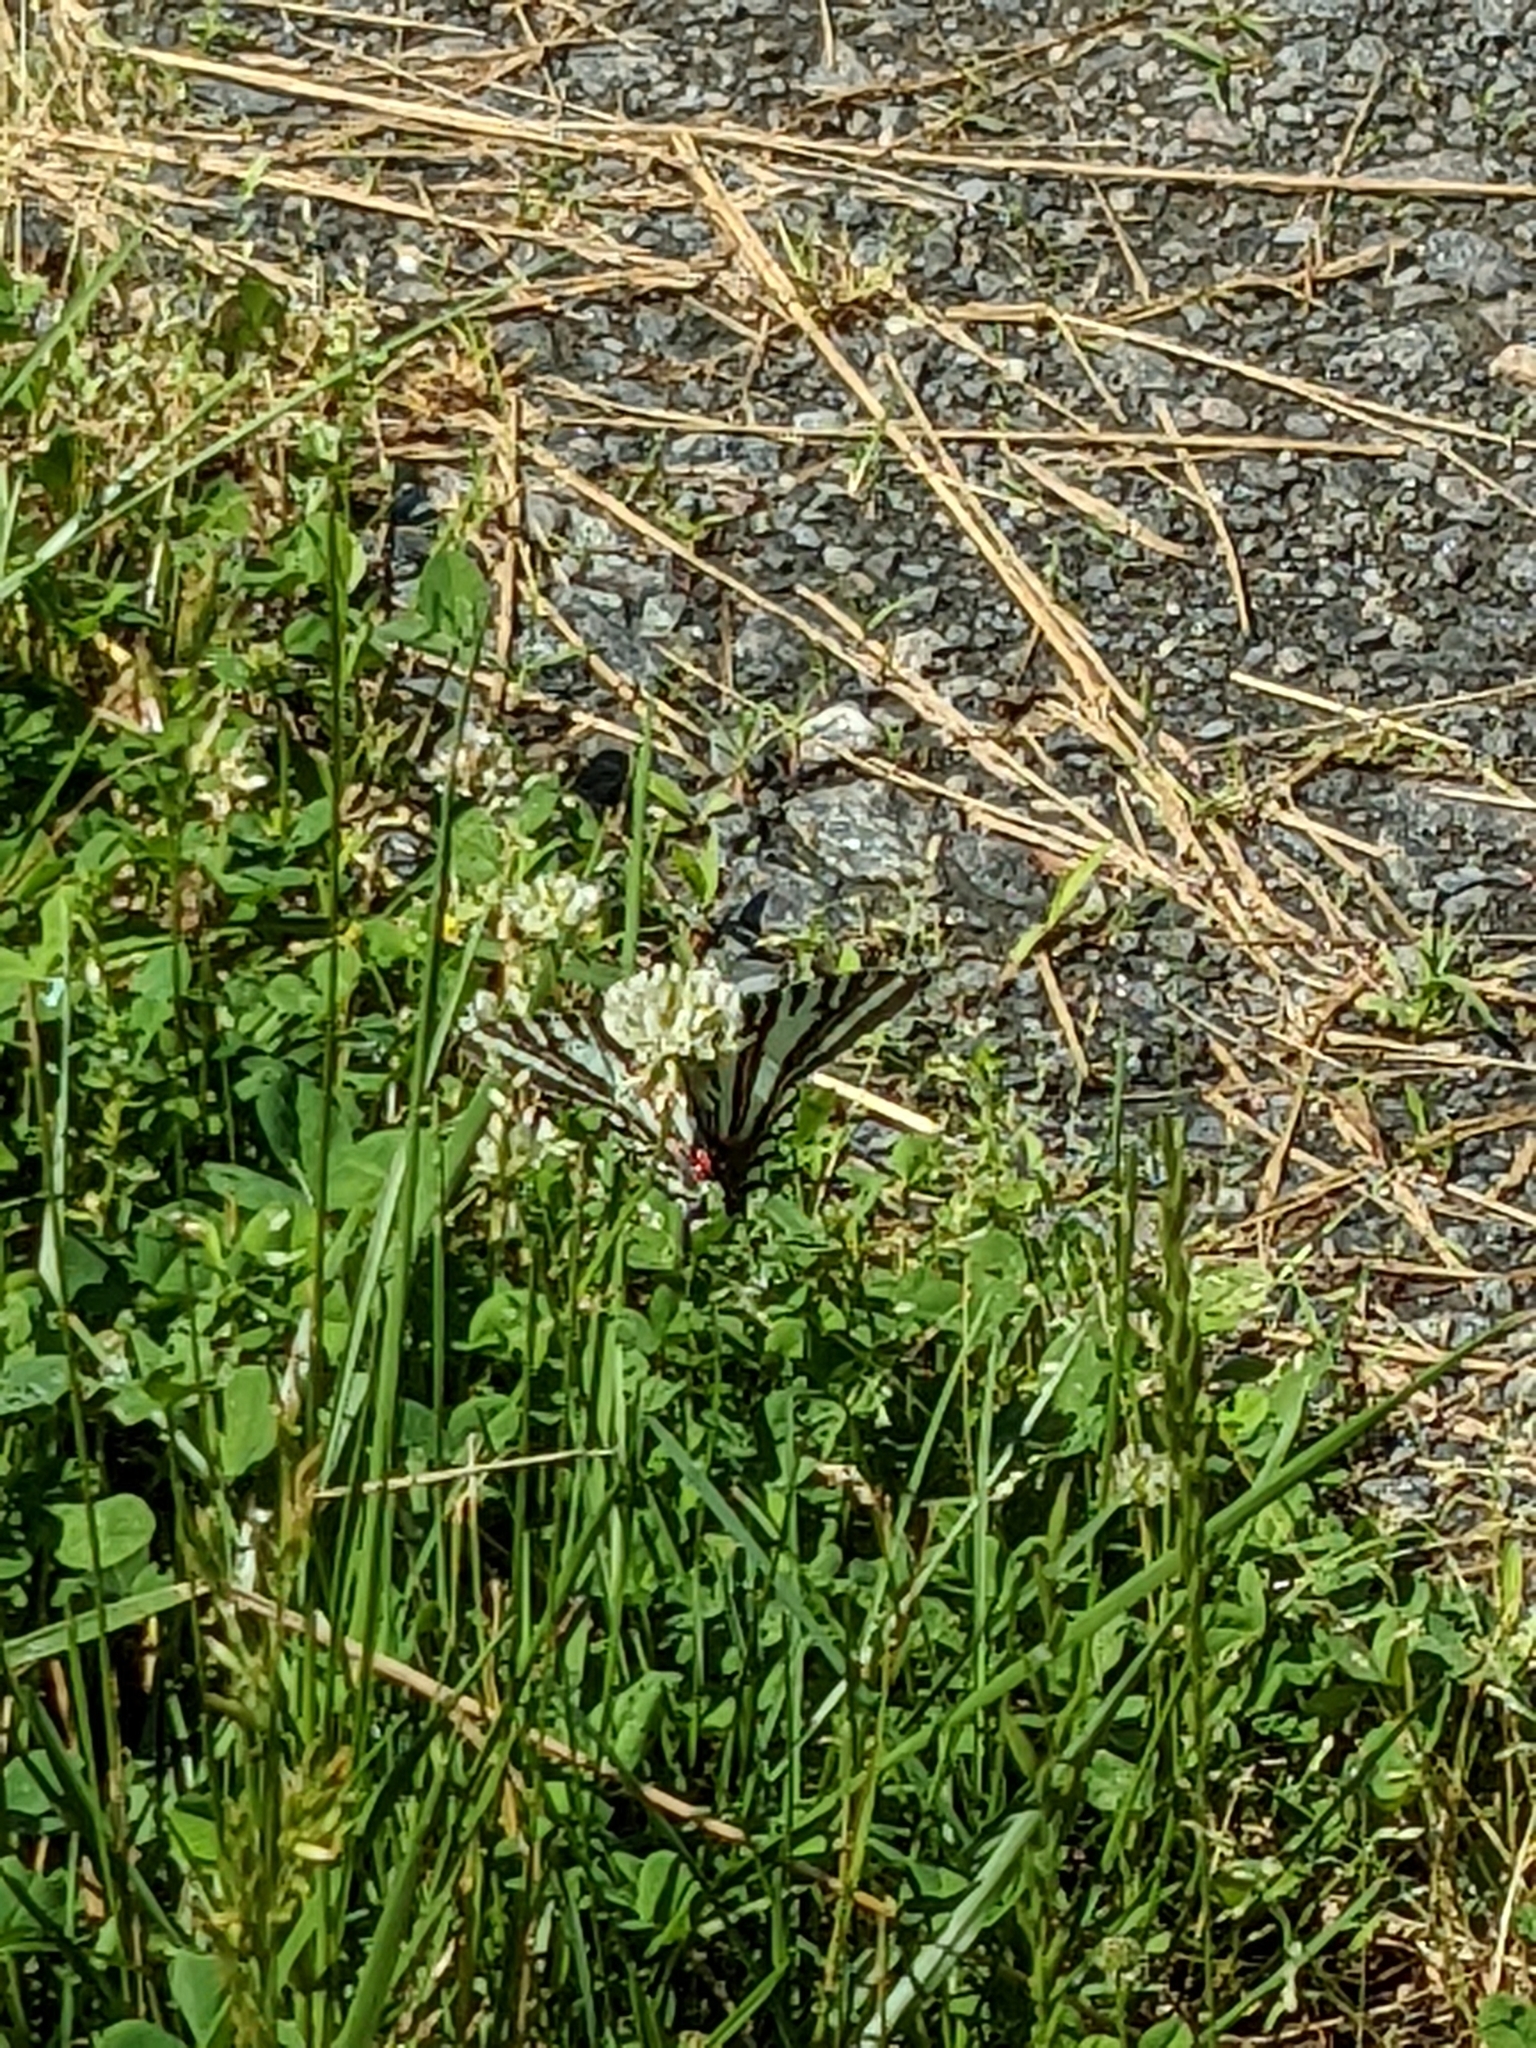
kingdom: Animalia
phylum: Arthropoda
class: Insecta
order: Lepidoptera
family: Papilionidae
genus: Protographium
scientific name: Protographium marcellus
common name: Zebra swallowtail
